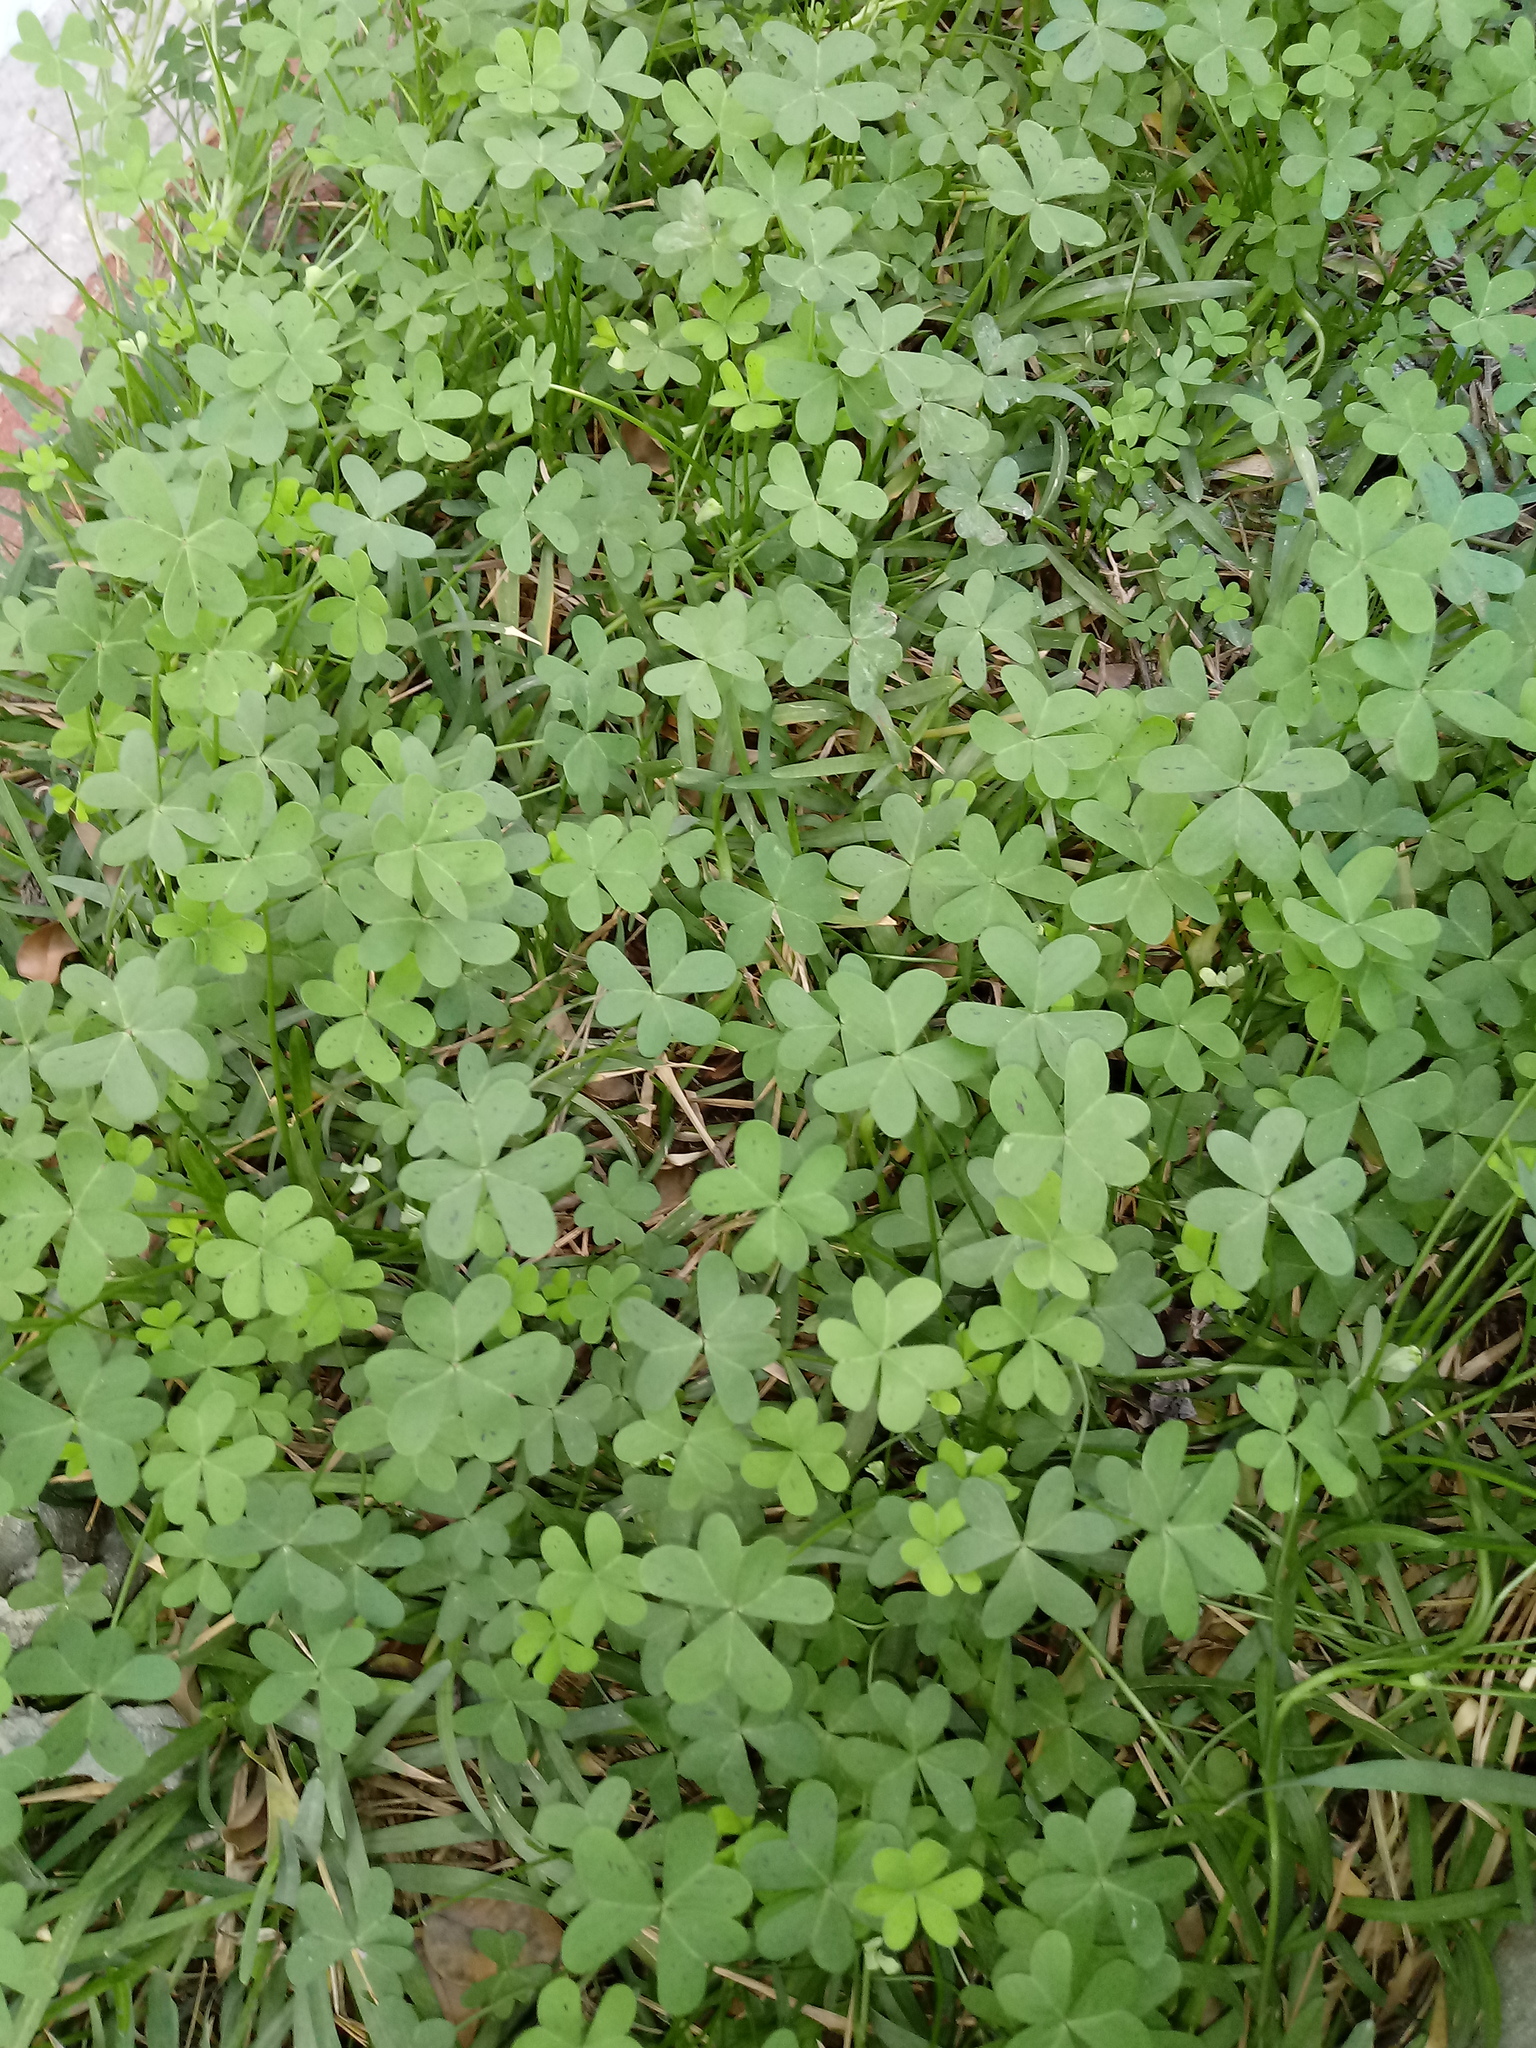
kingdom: Plantae
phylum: Tracheophyta
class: Magnoliopsida
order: Oxalidales
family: Oxalidaceae
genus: Oxalis
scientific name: Oxalis pes-caprae
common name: Bermuda-buttercup
